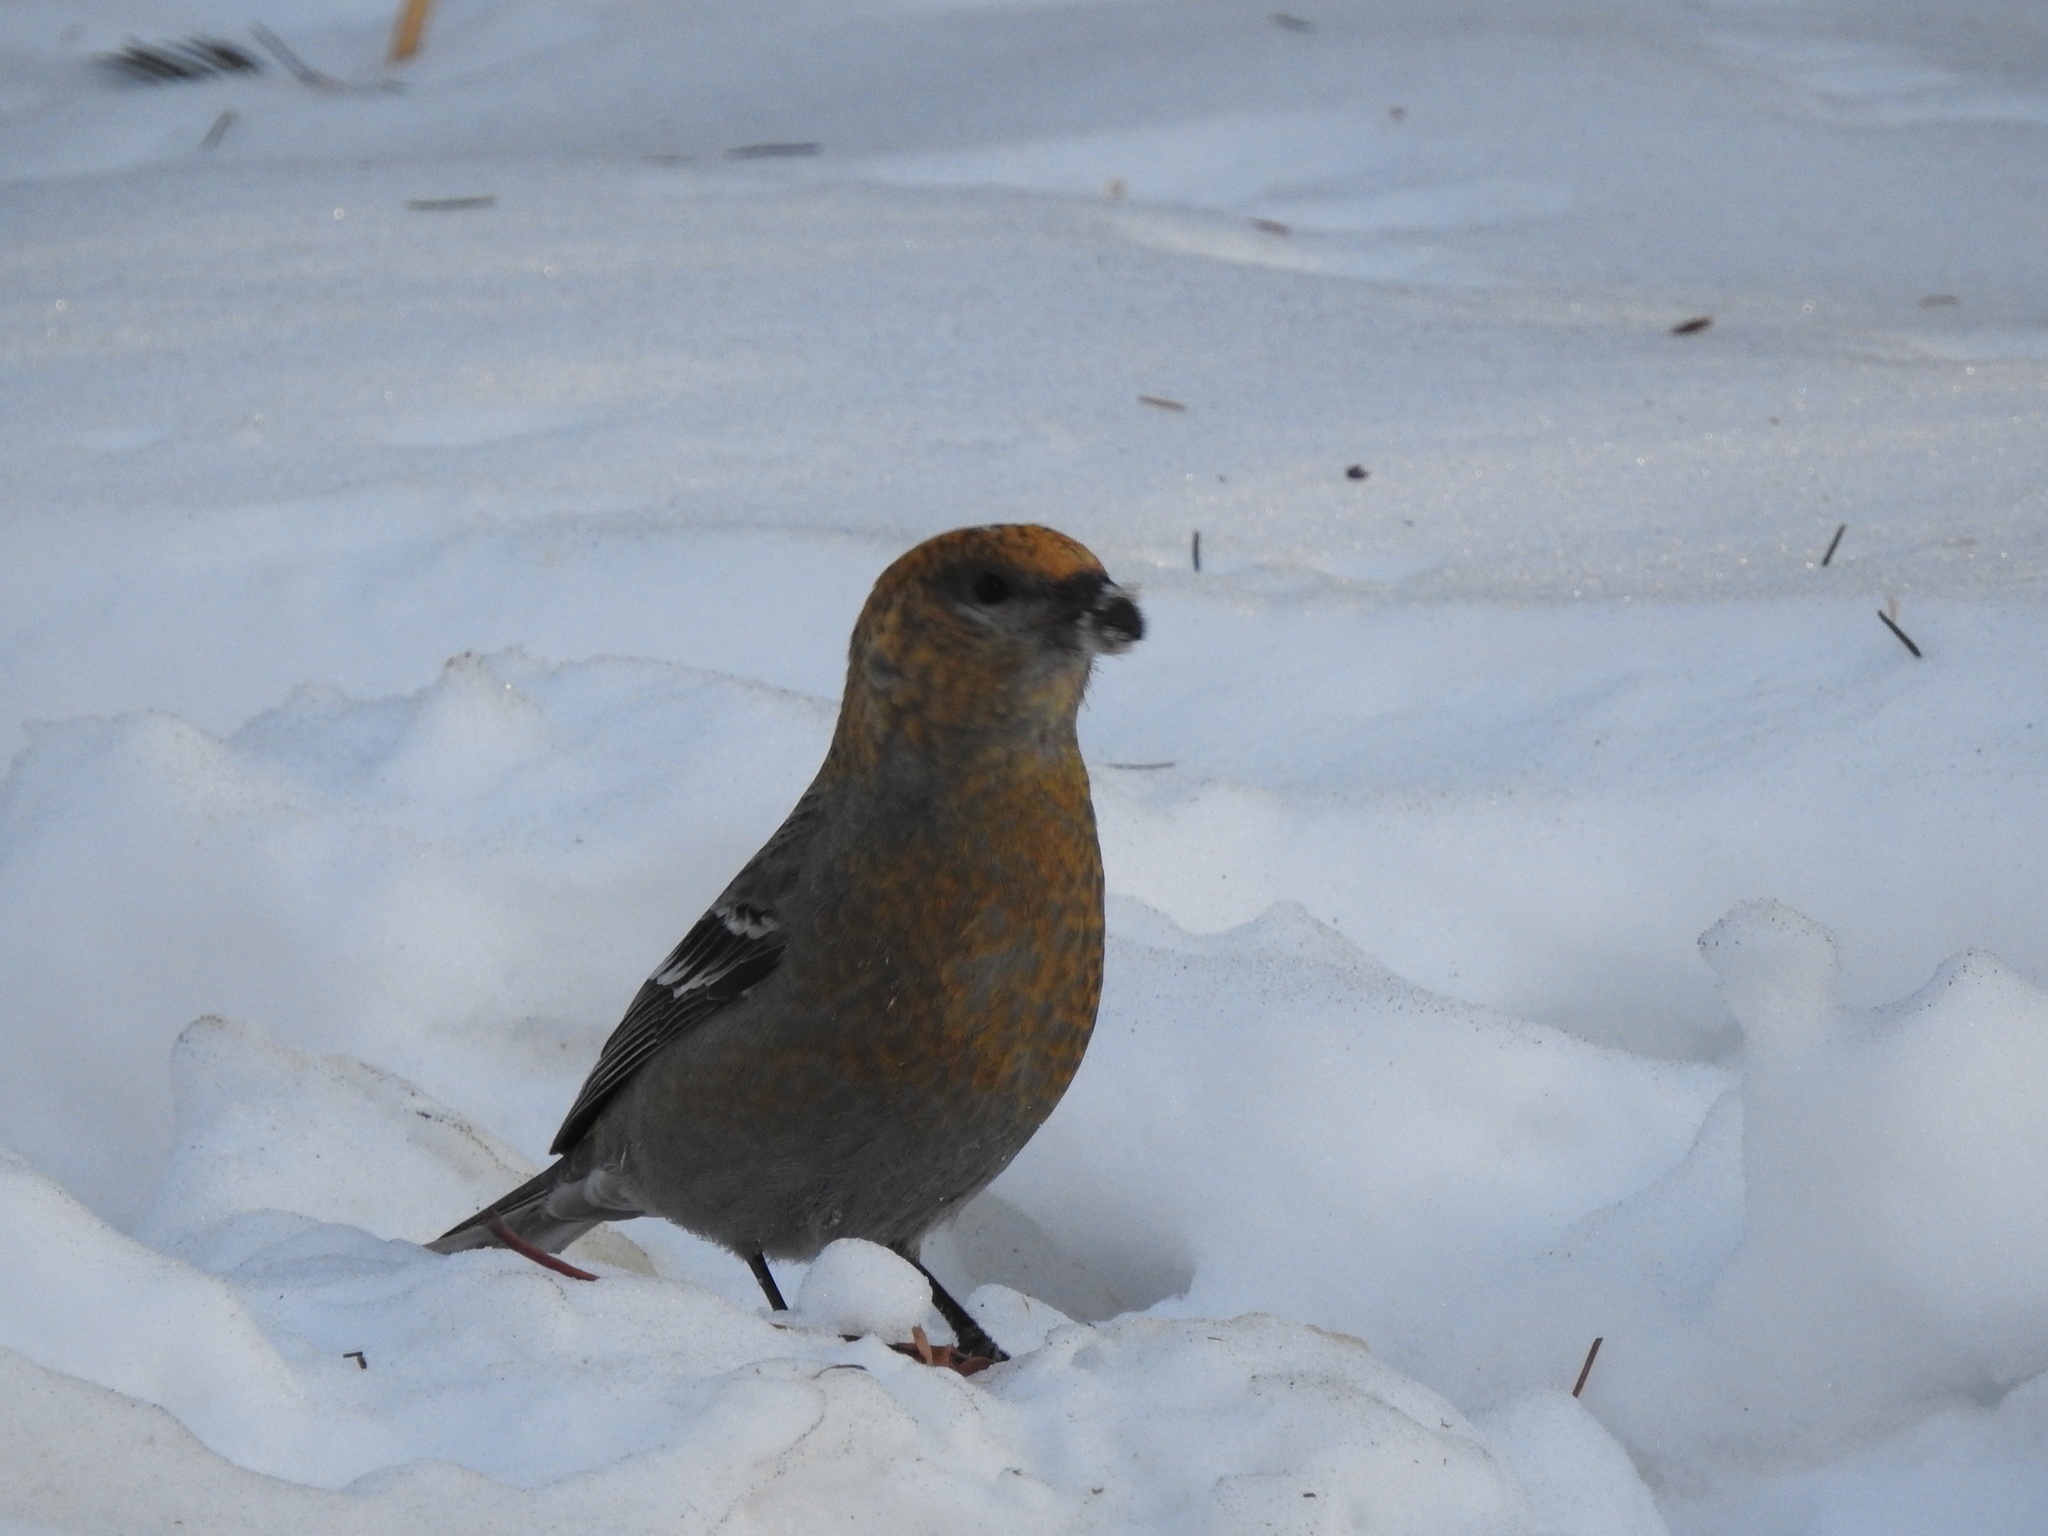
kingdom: Animalia
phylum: Chordata
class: Aves
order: Passeriformes
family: Fringillidae
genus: Pinicola
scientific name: Pinicola enucleator
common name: Pine grosbeak
